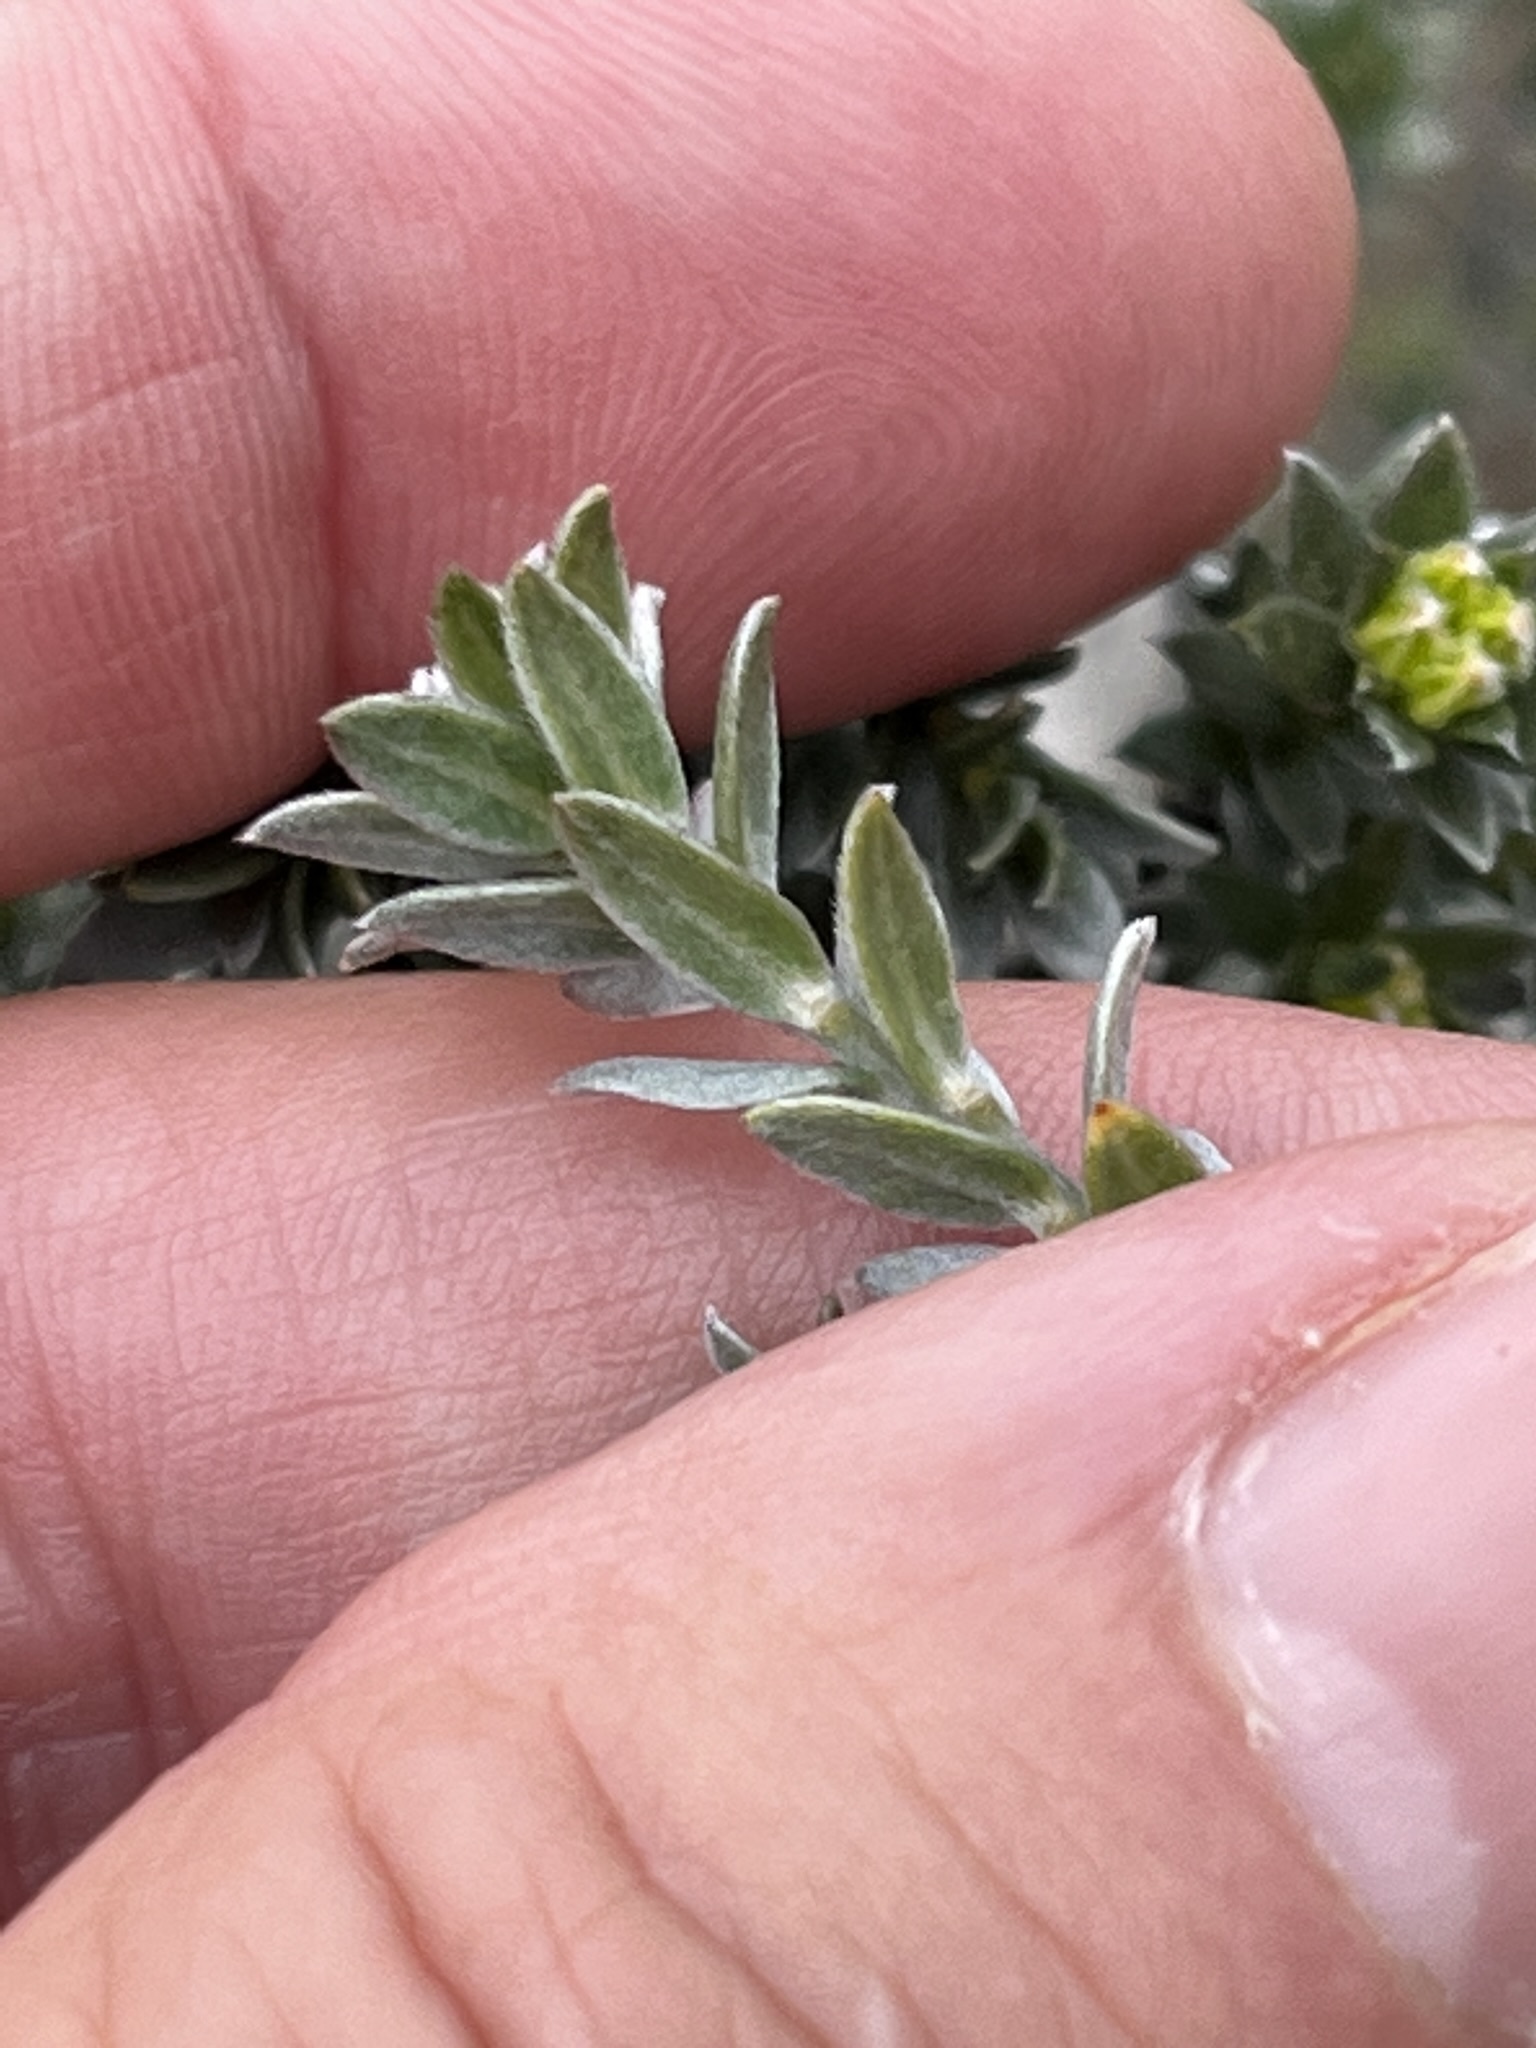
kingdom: Plantae
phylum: Tracheophyta
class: Magnoliopsida
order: Fabales
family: Fabaceae
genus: Amphithalea
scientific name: Amphithalea tomentosa
